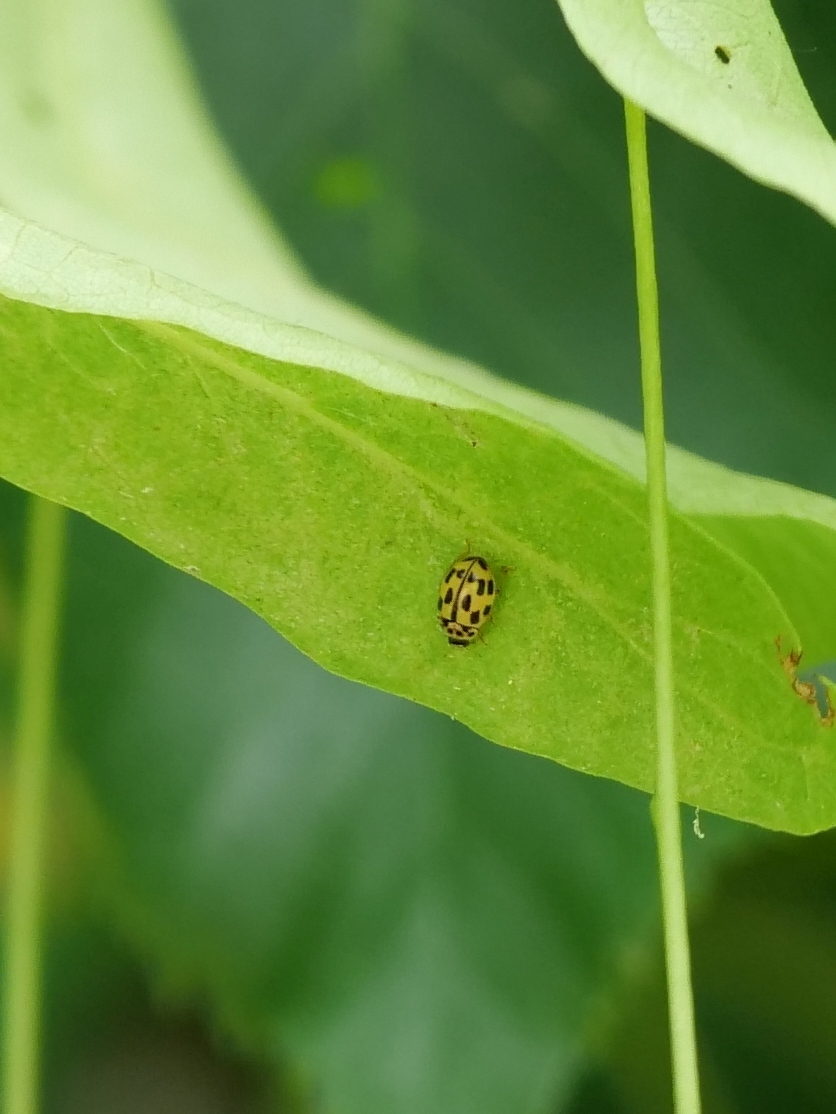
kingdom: Animalia
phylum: Arthropoda
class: Insecta
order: Coleoptera
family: Coccinellidae
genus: Propylaea
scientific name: Propylaea quatuordecimpunctata
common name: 14-spotted ladybird beetle
